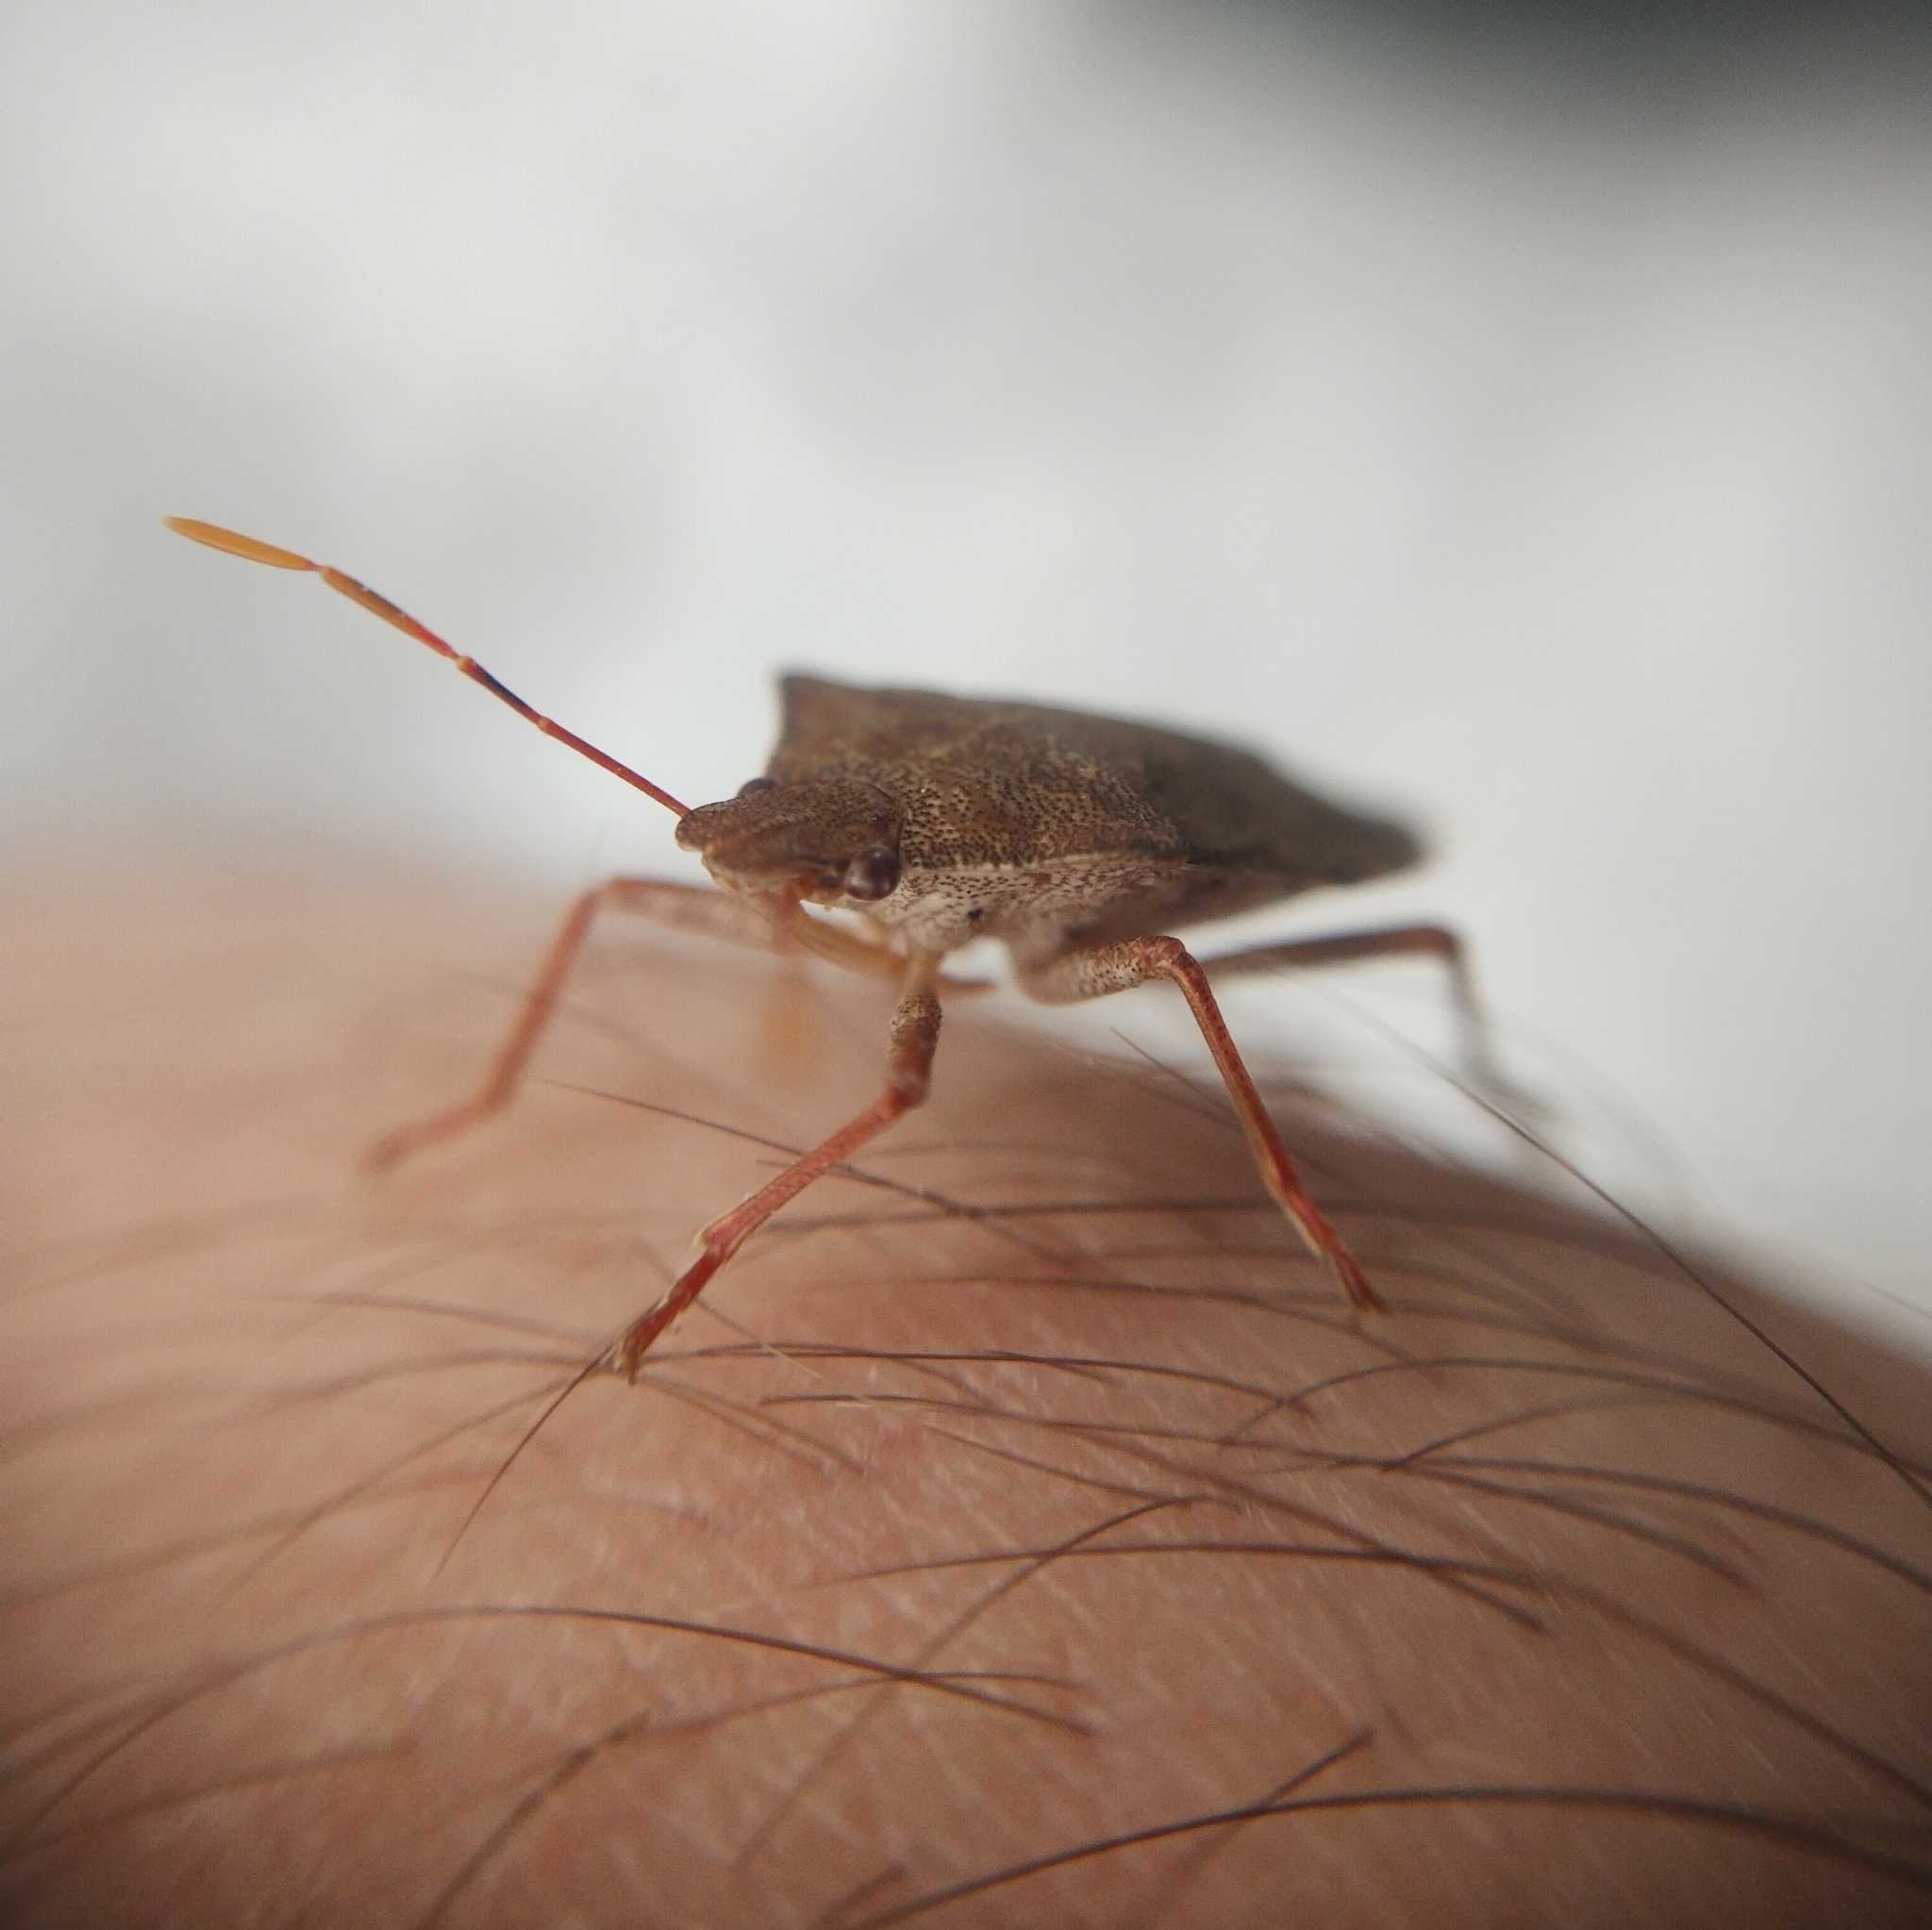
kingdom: Animalia
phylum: Arthropoda
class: Insecta
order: Hemiptera
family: Pentatomidae
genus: Arma
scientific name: Arma custos
